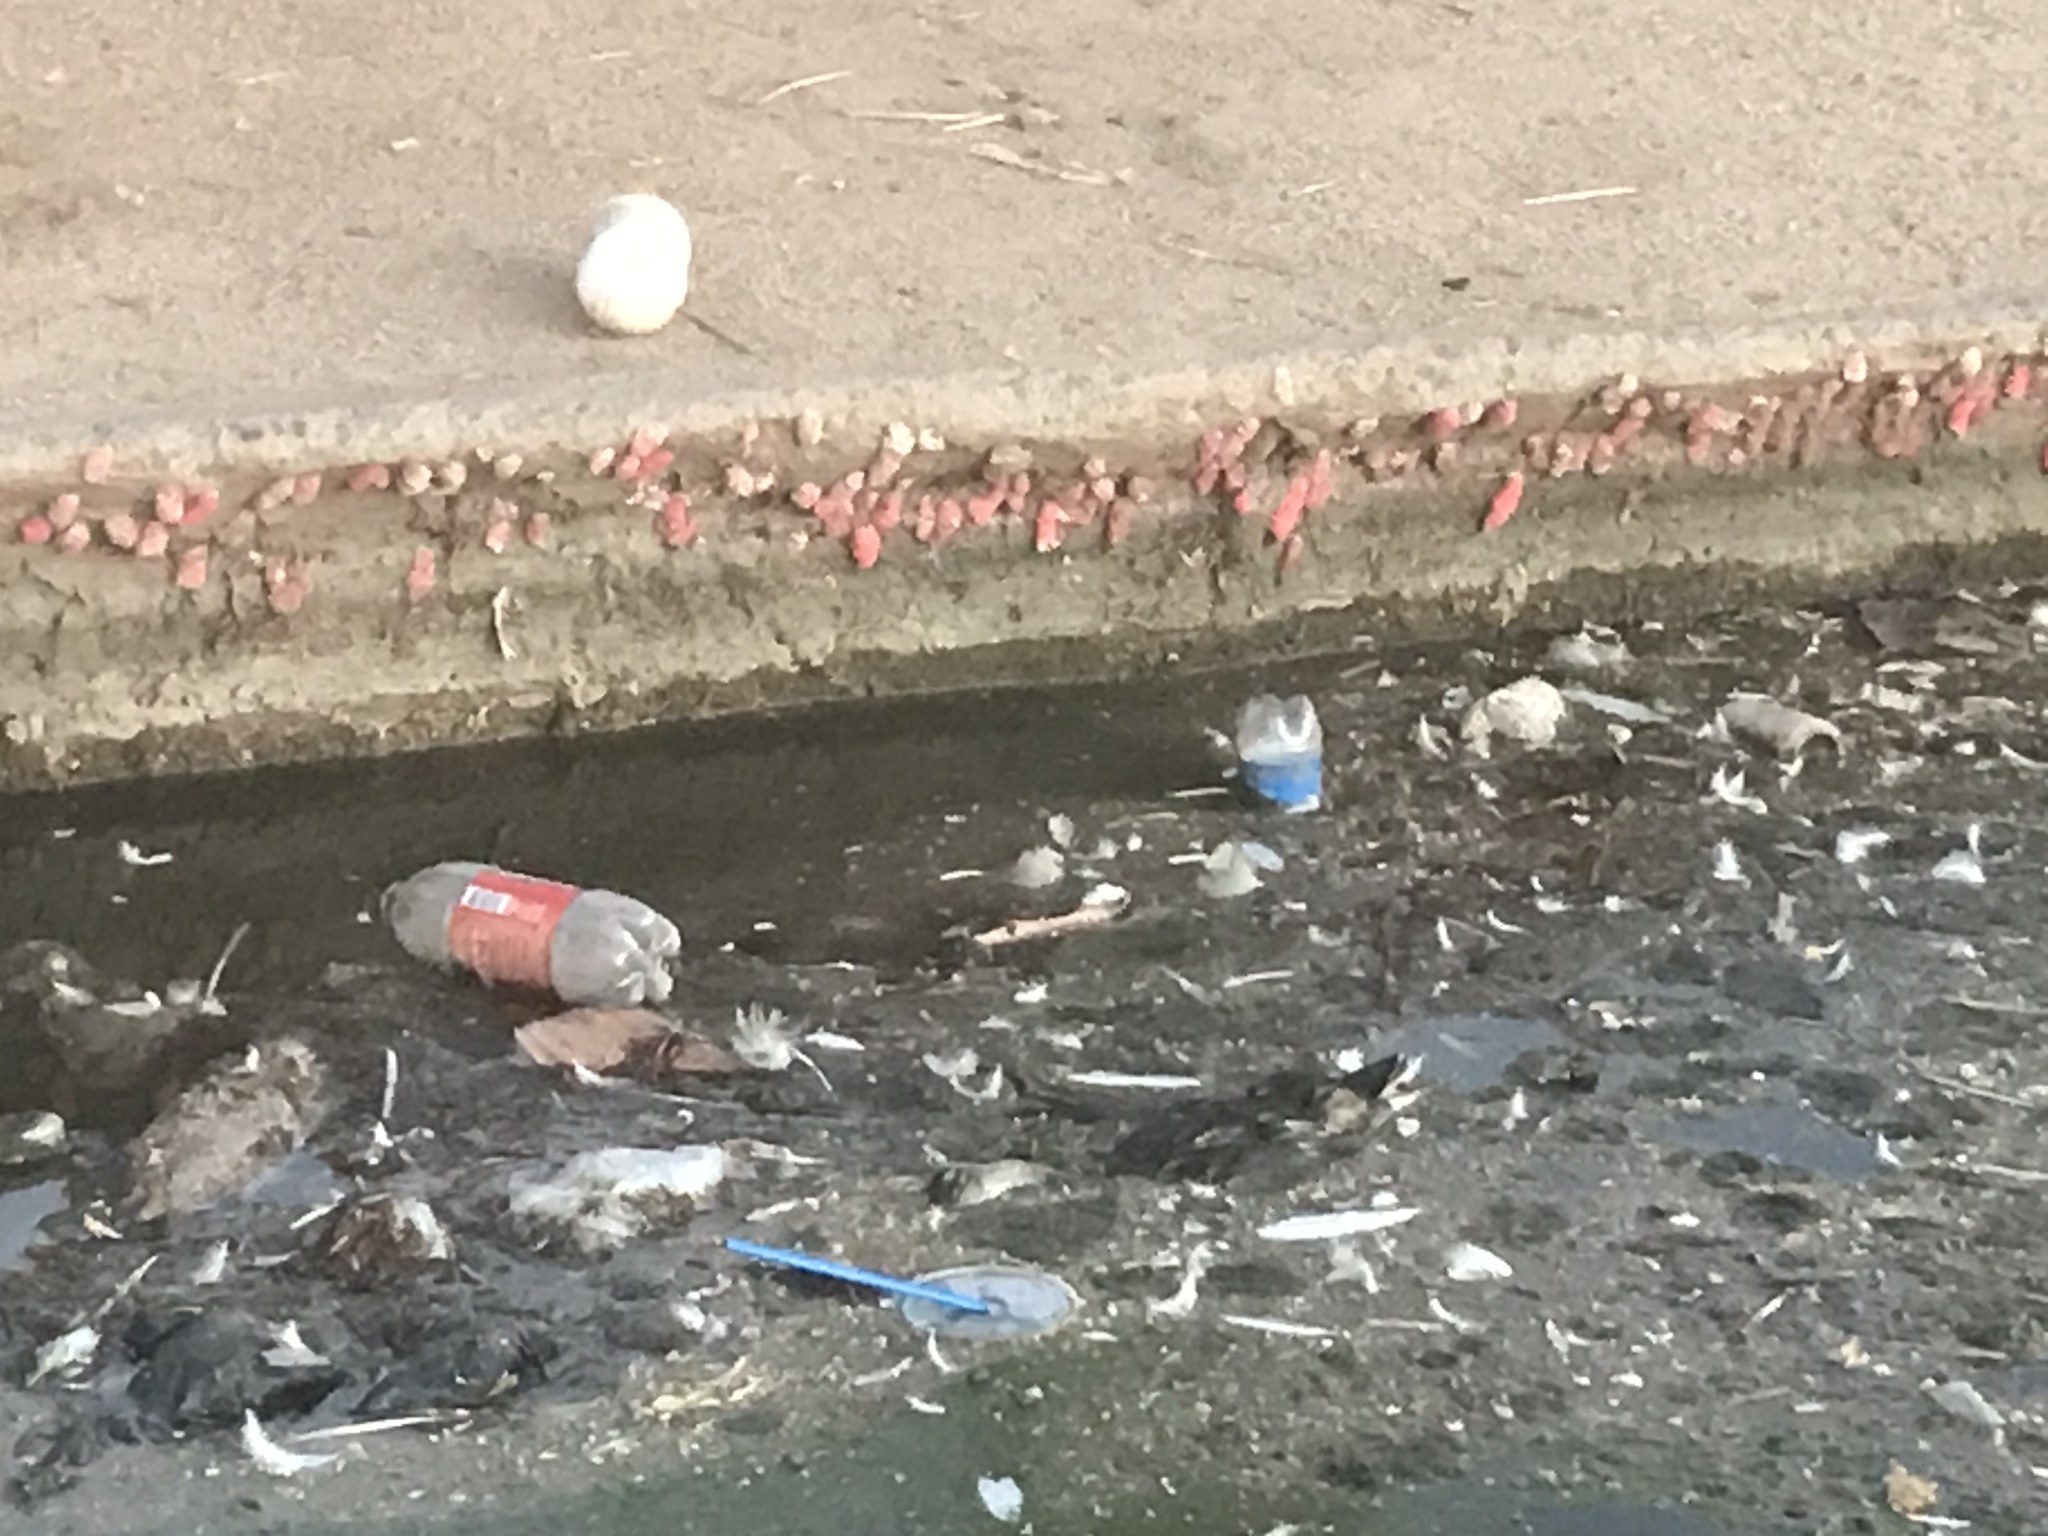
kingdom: Animalia
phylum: Mollusca
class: Gastropoda
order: Architaenioglossa
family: Ampullariidae
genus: Pomacea
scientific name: Pomacea canaliculata
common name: Channeled applesnail
